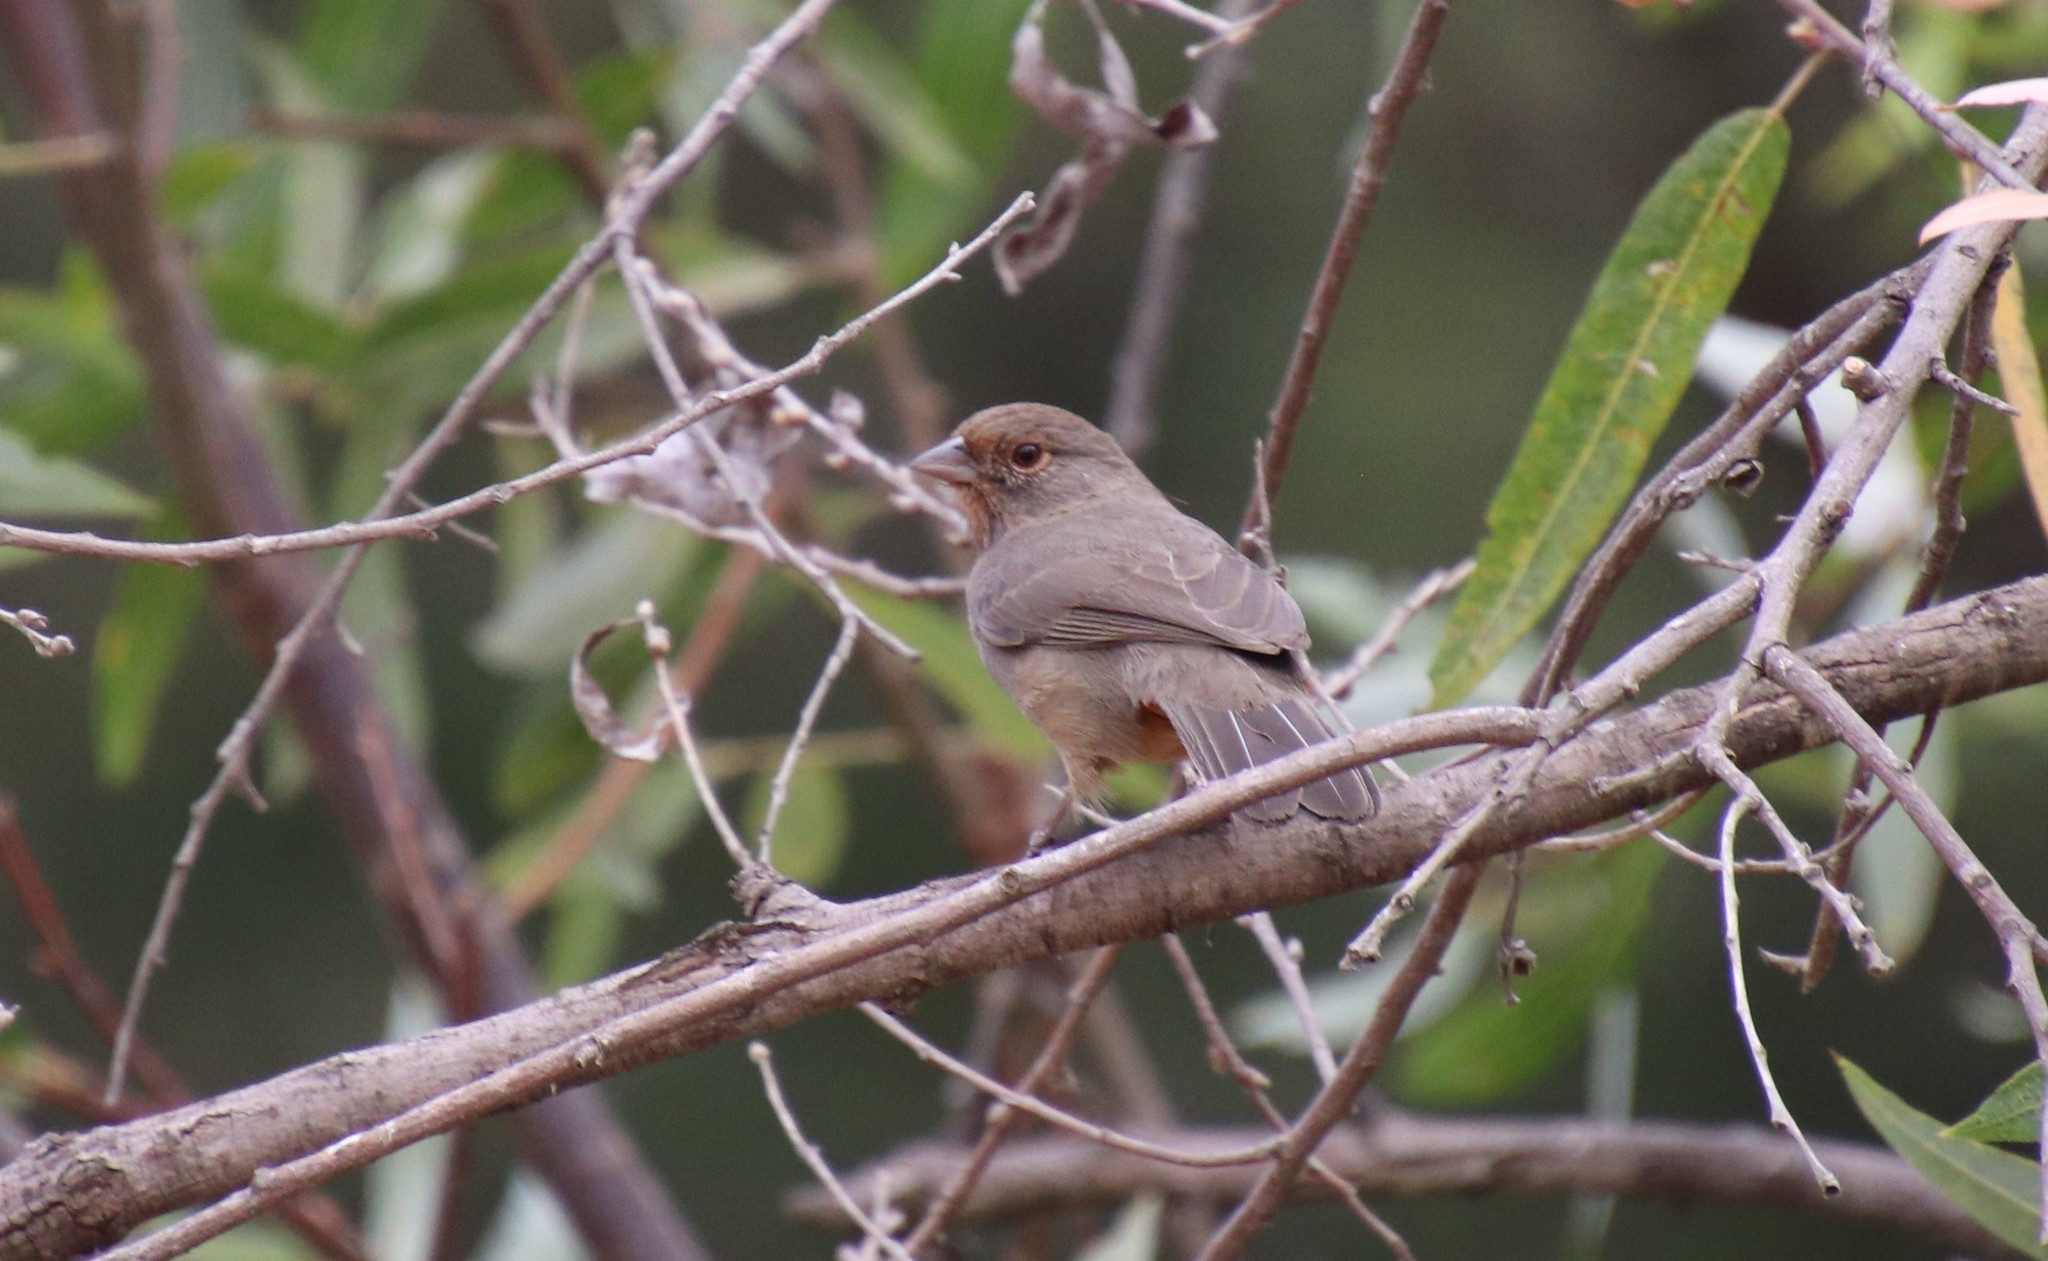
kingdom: Animalia
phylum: Chordata
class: Aves
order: Passeriformes
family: Passerellidae
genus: Melozone
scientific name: Melozone crissalis
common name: California towhee
